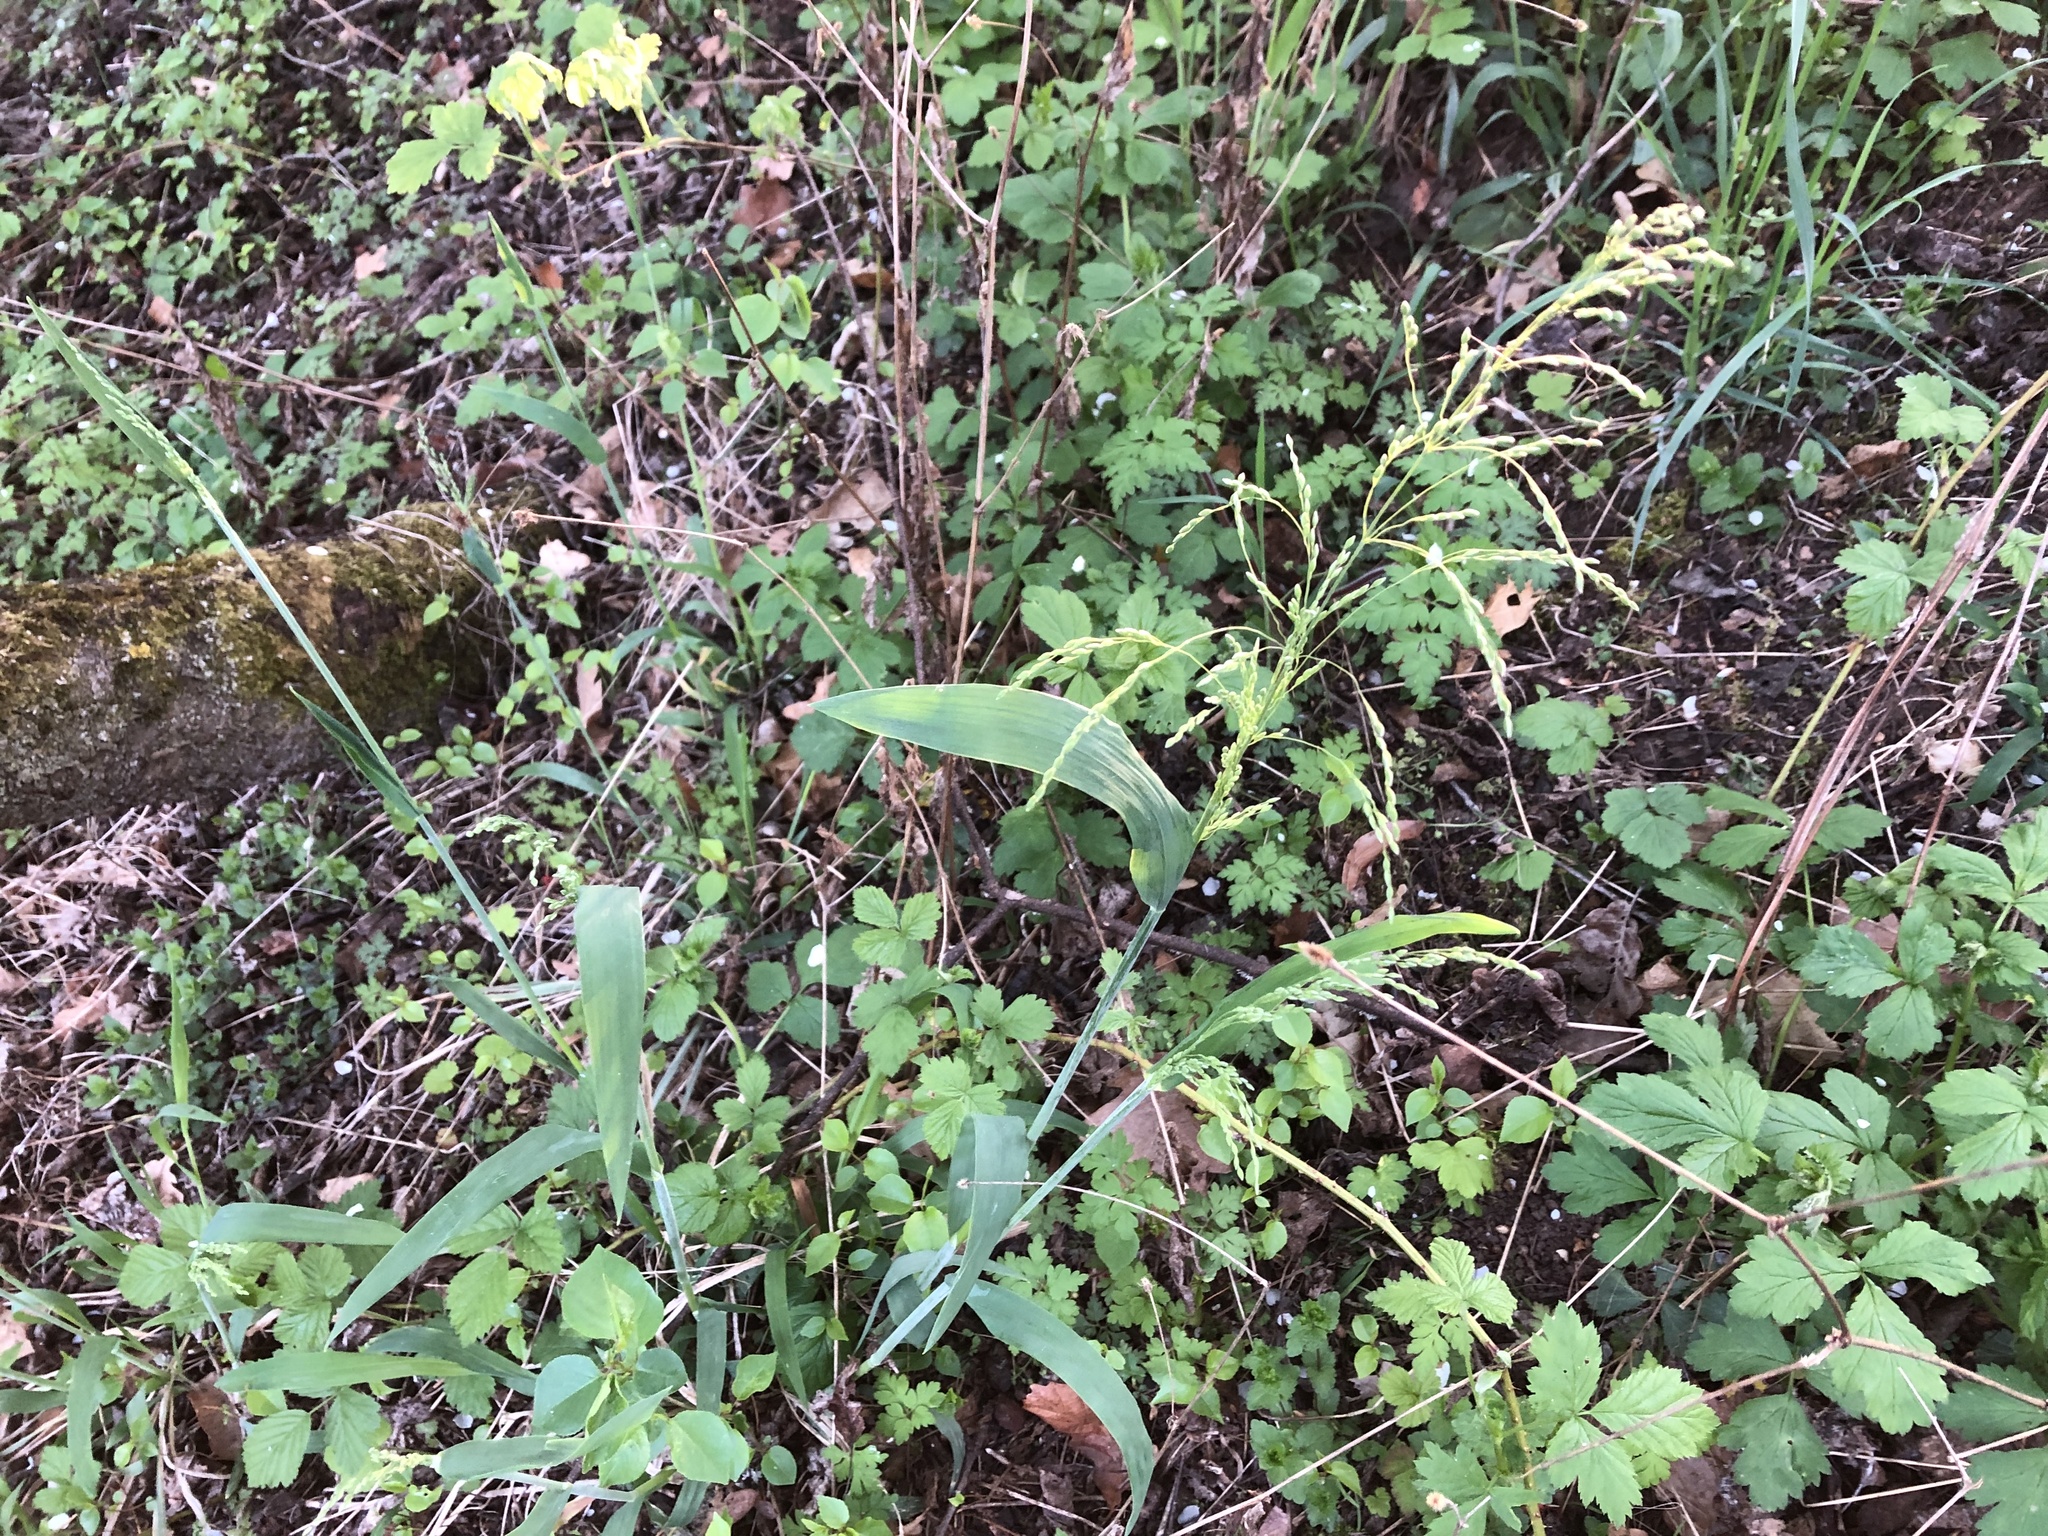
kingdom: Plantae
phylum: Tracheophyta
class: Liliopsida
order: Poales
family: Poaceae
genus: Milium
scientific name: Milium effusum
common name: Wood millet
